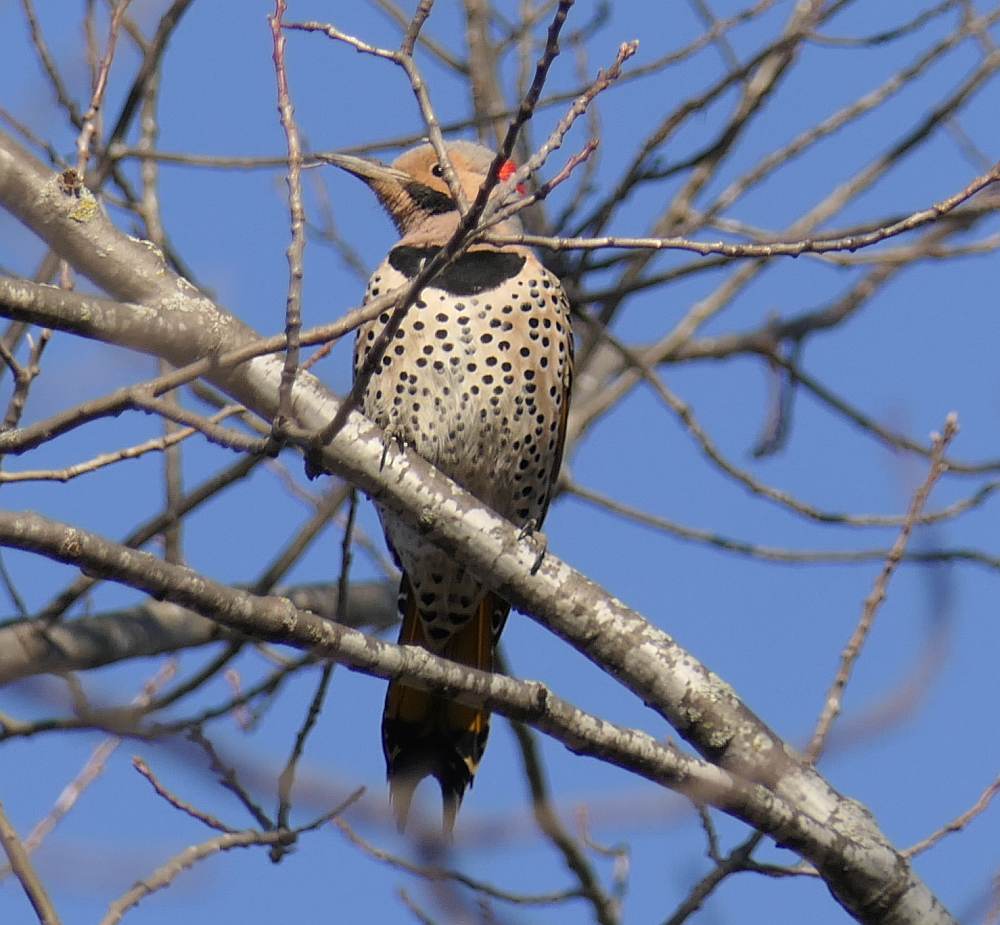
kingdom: Animalia
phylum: Chordata
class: Aves
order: Piciformes
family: Picidae
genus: Colaptes
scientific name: Colaptes auratus
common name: Northern flicker
